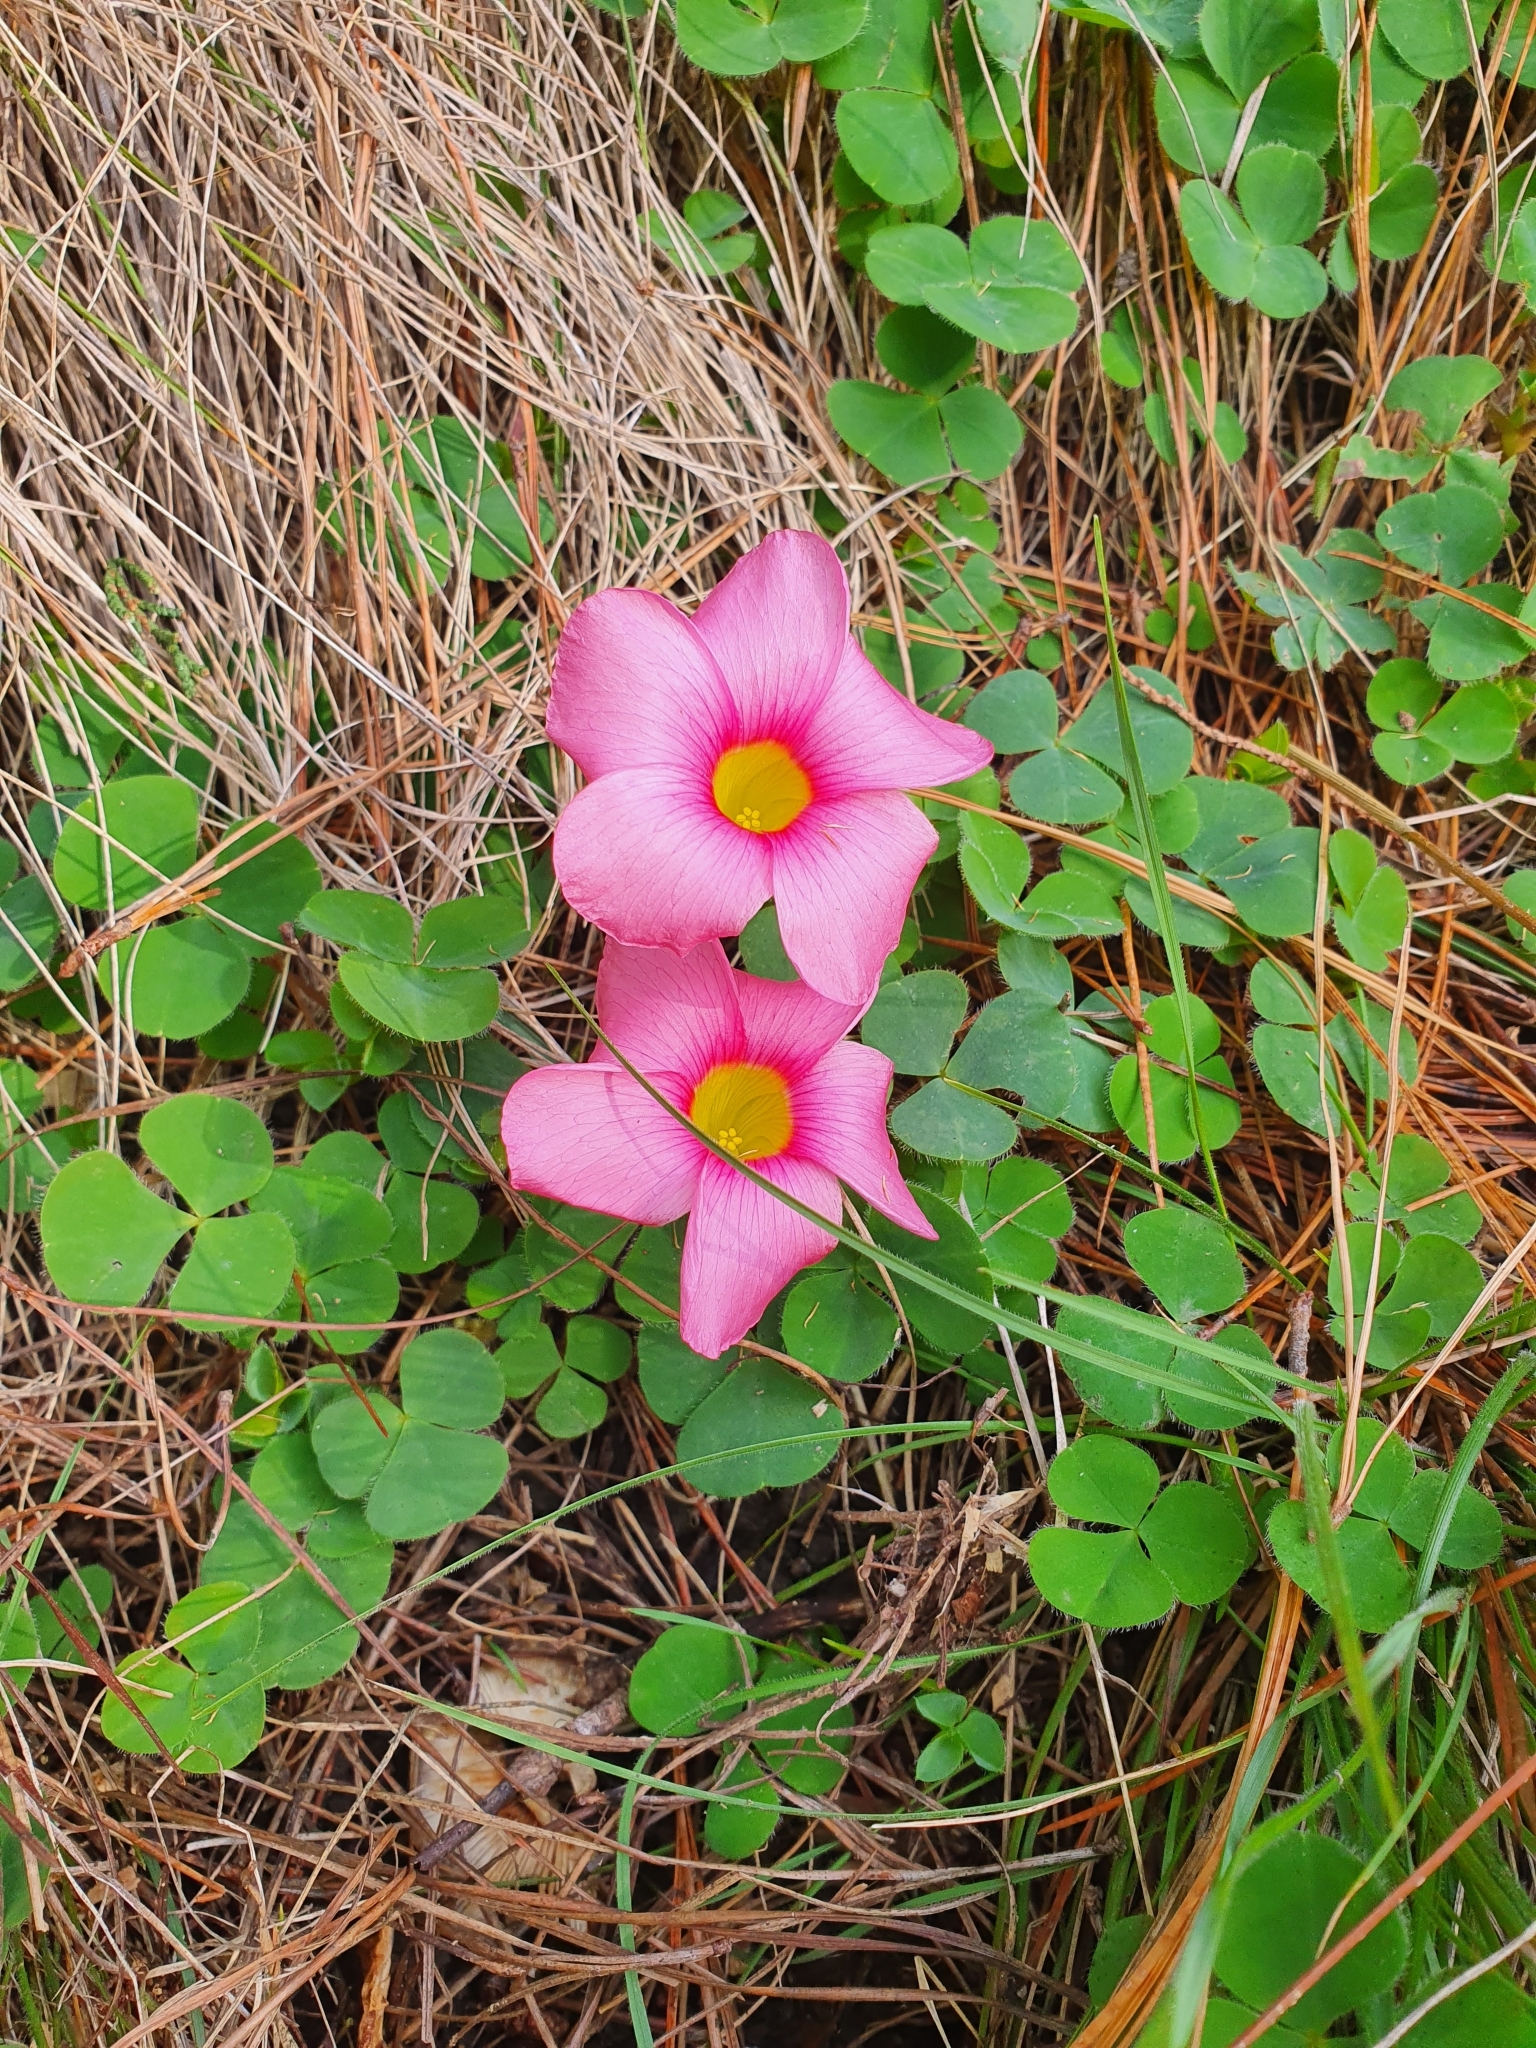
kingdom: Plantae
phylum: Tracheophyta
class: Magnoliopsida
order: Oxalidales
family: Oxalidaceae
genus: Oxalis
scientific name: Oxalis purpurea
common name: Purple woodsorrel
